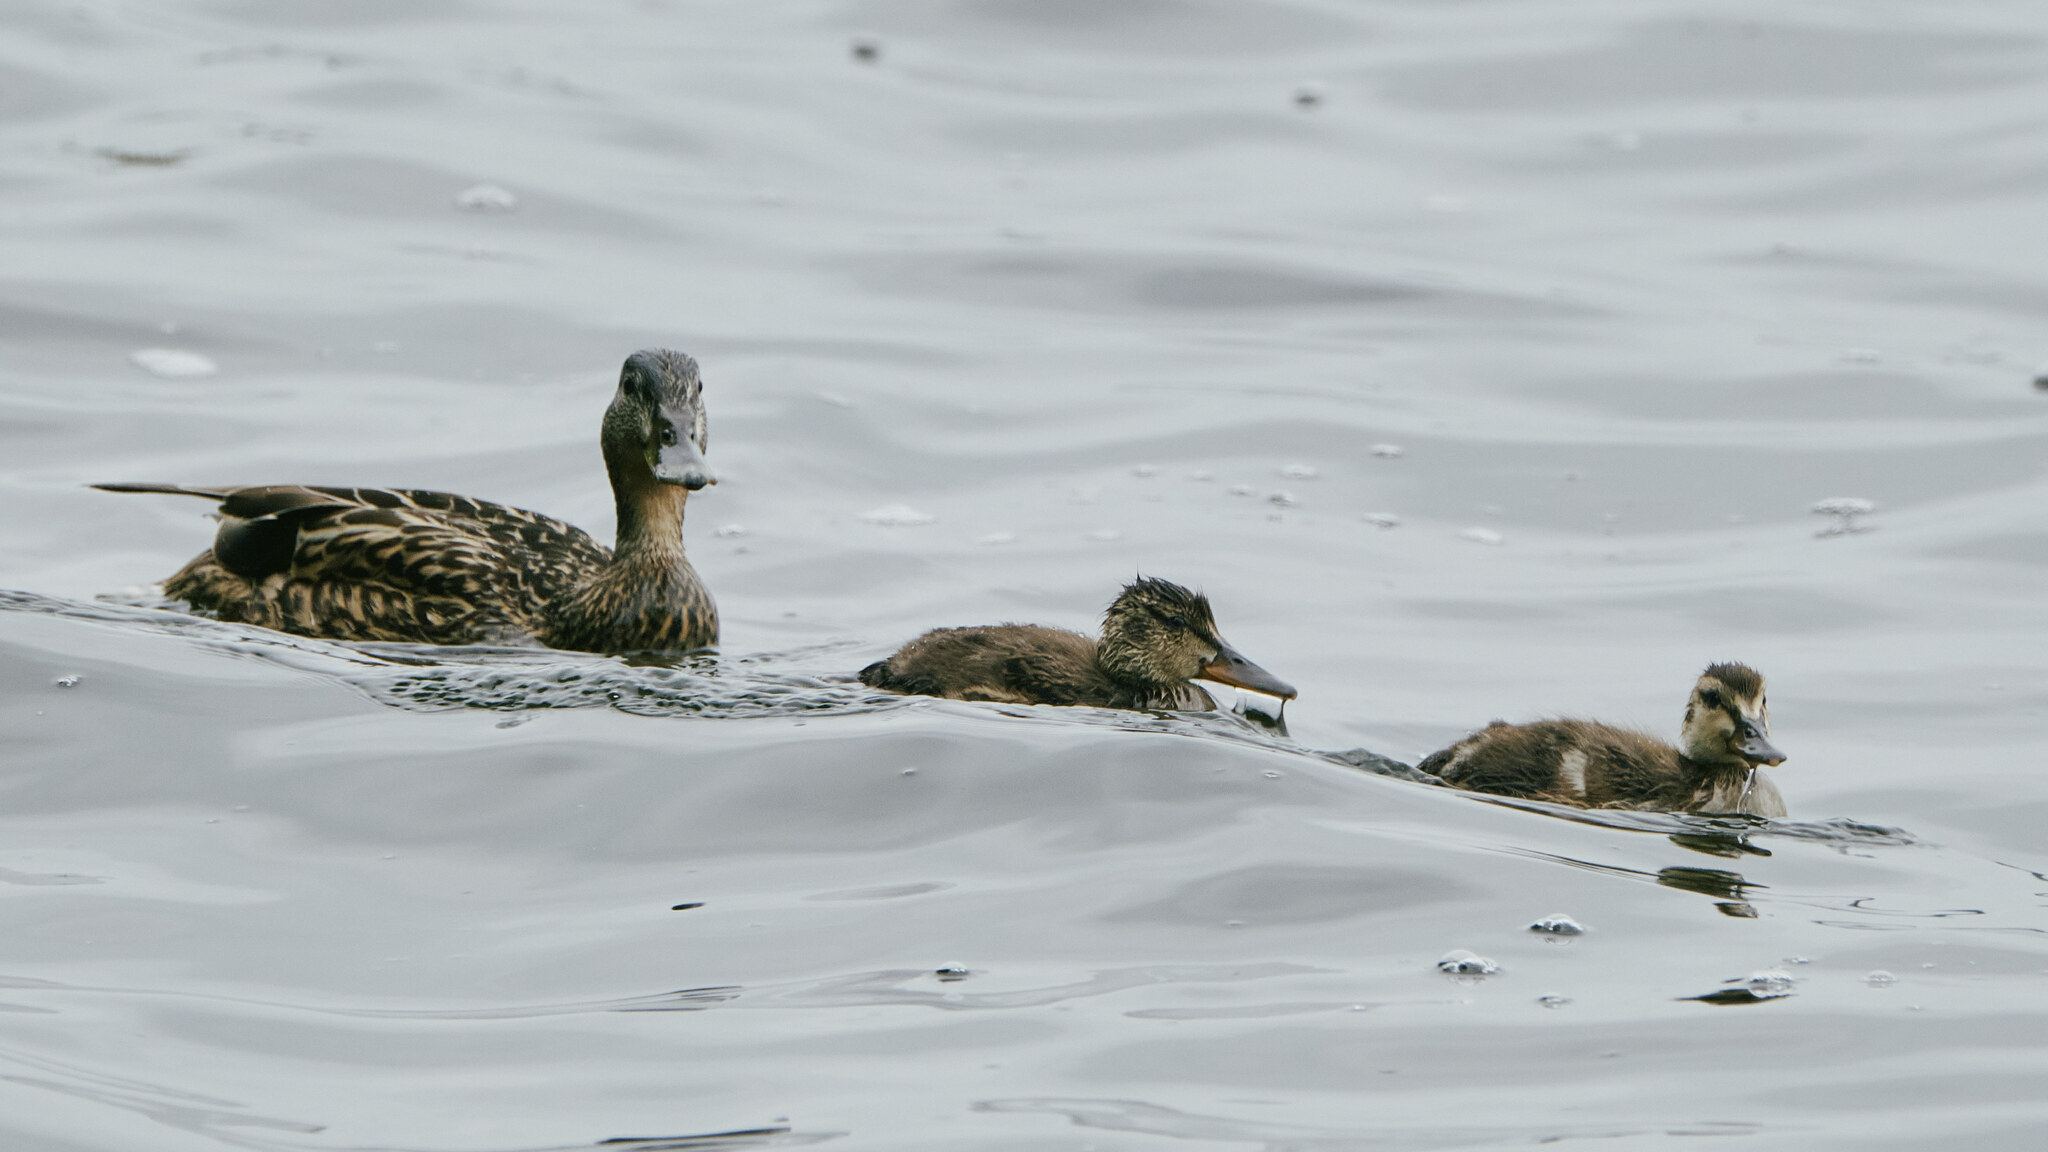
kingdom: Animalia
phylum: Chordata
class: Aves
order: Anseriformes
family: Anatidae
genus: Anas
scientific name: Anas platyrhynchos
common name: Mallard
